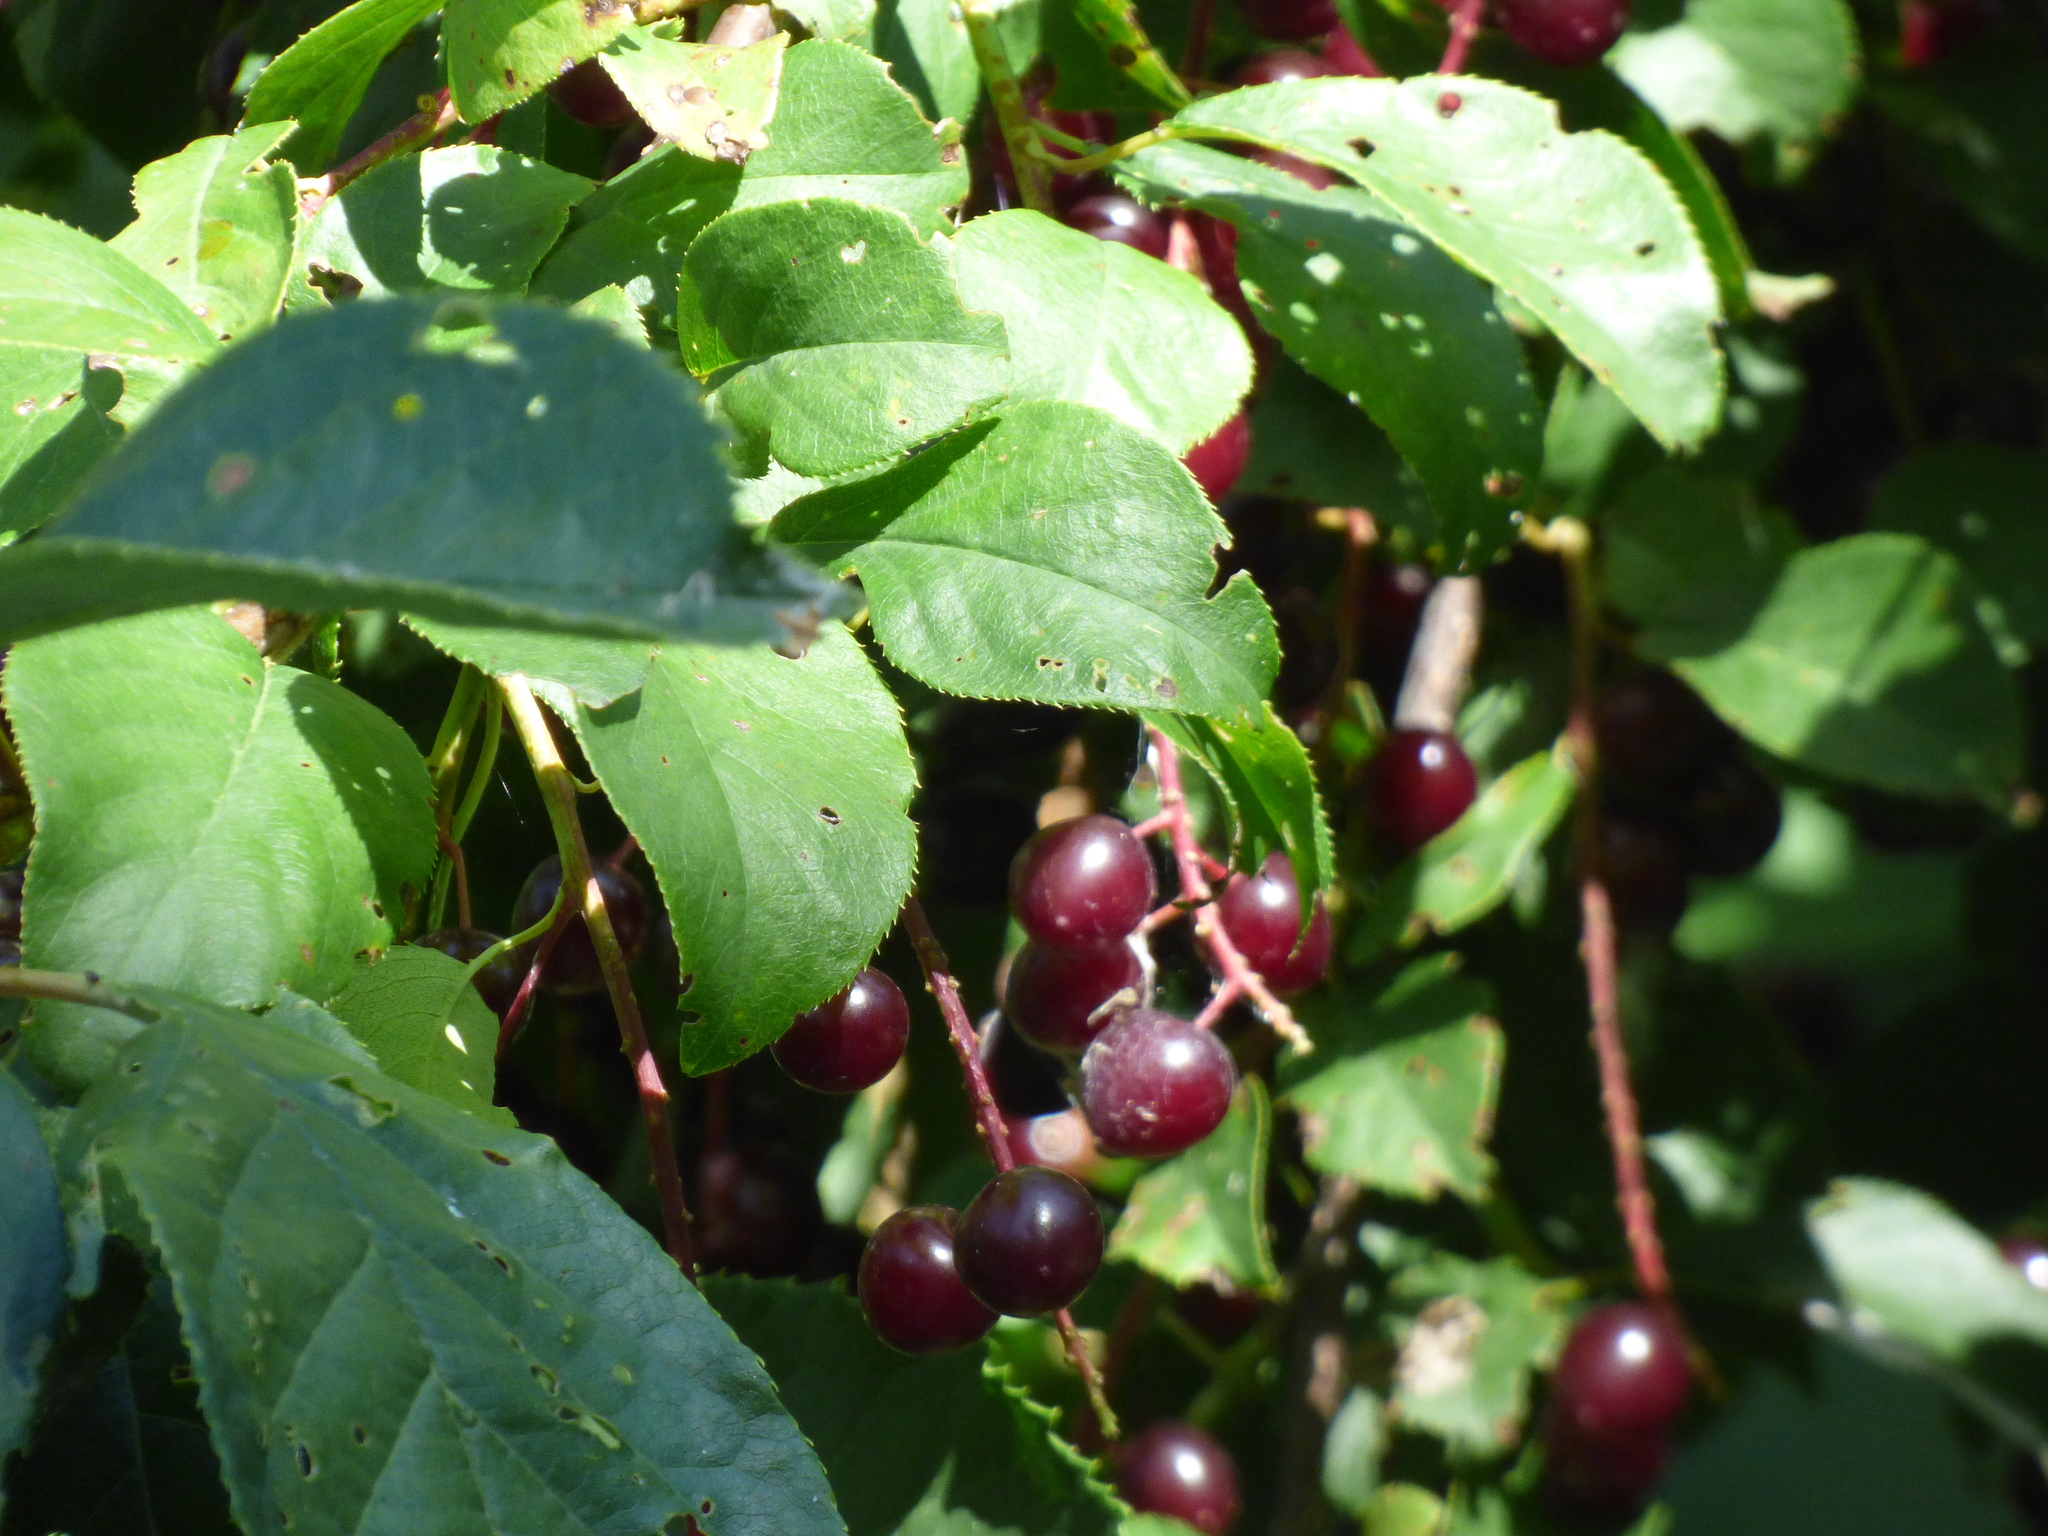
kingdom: Plantae
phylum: Tracheophyta
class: Magnoliopsida
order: Rosales
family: Rosaceae
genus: Prunus
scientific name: Prunus virginiana
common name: Chokecherry
